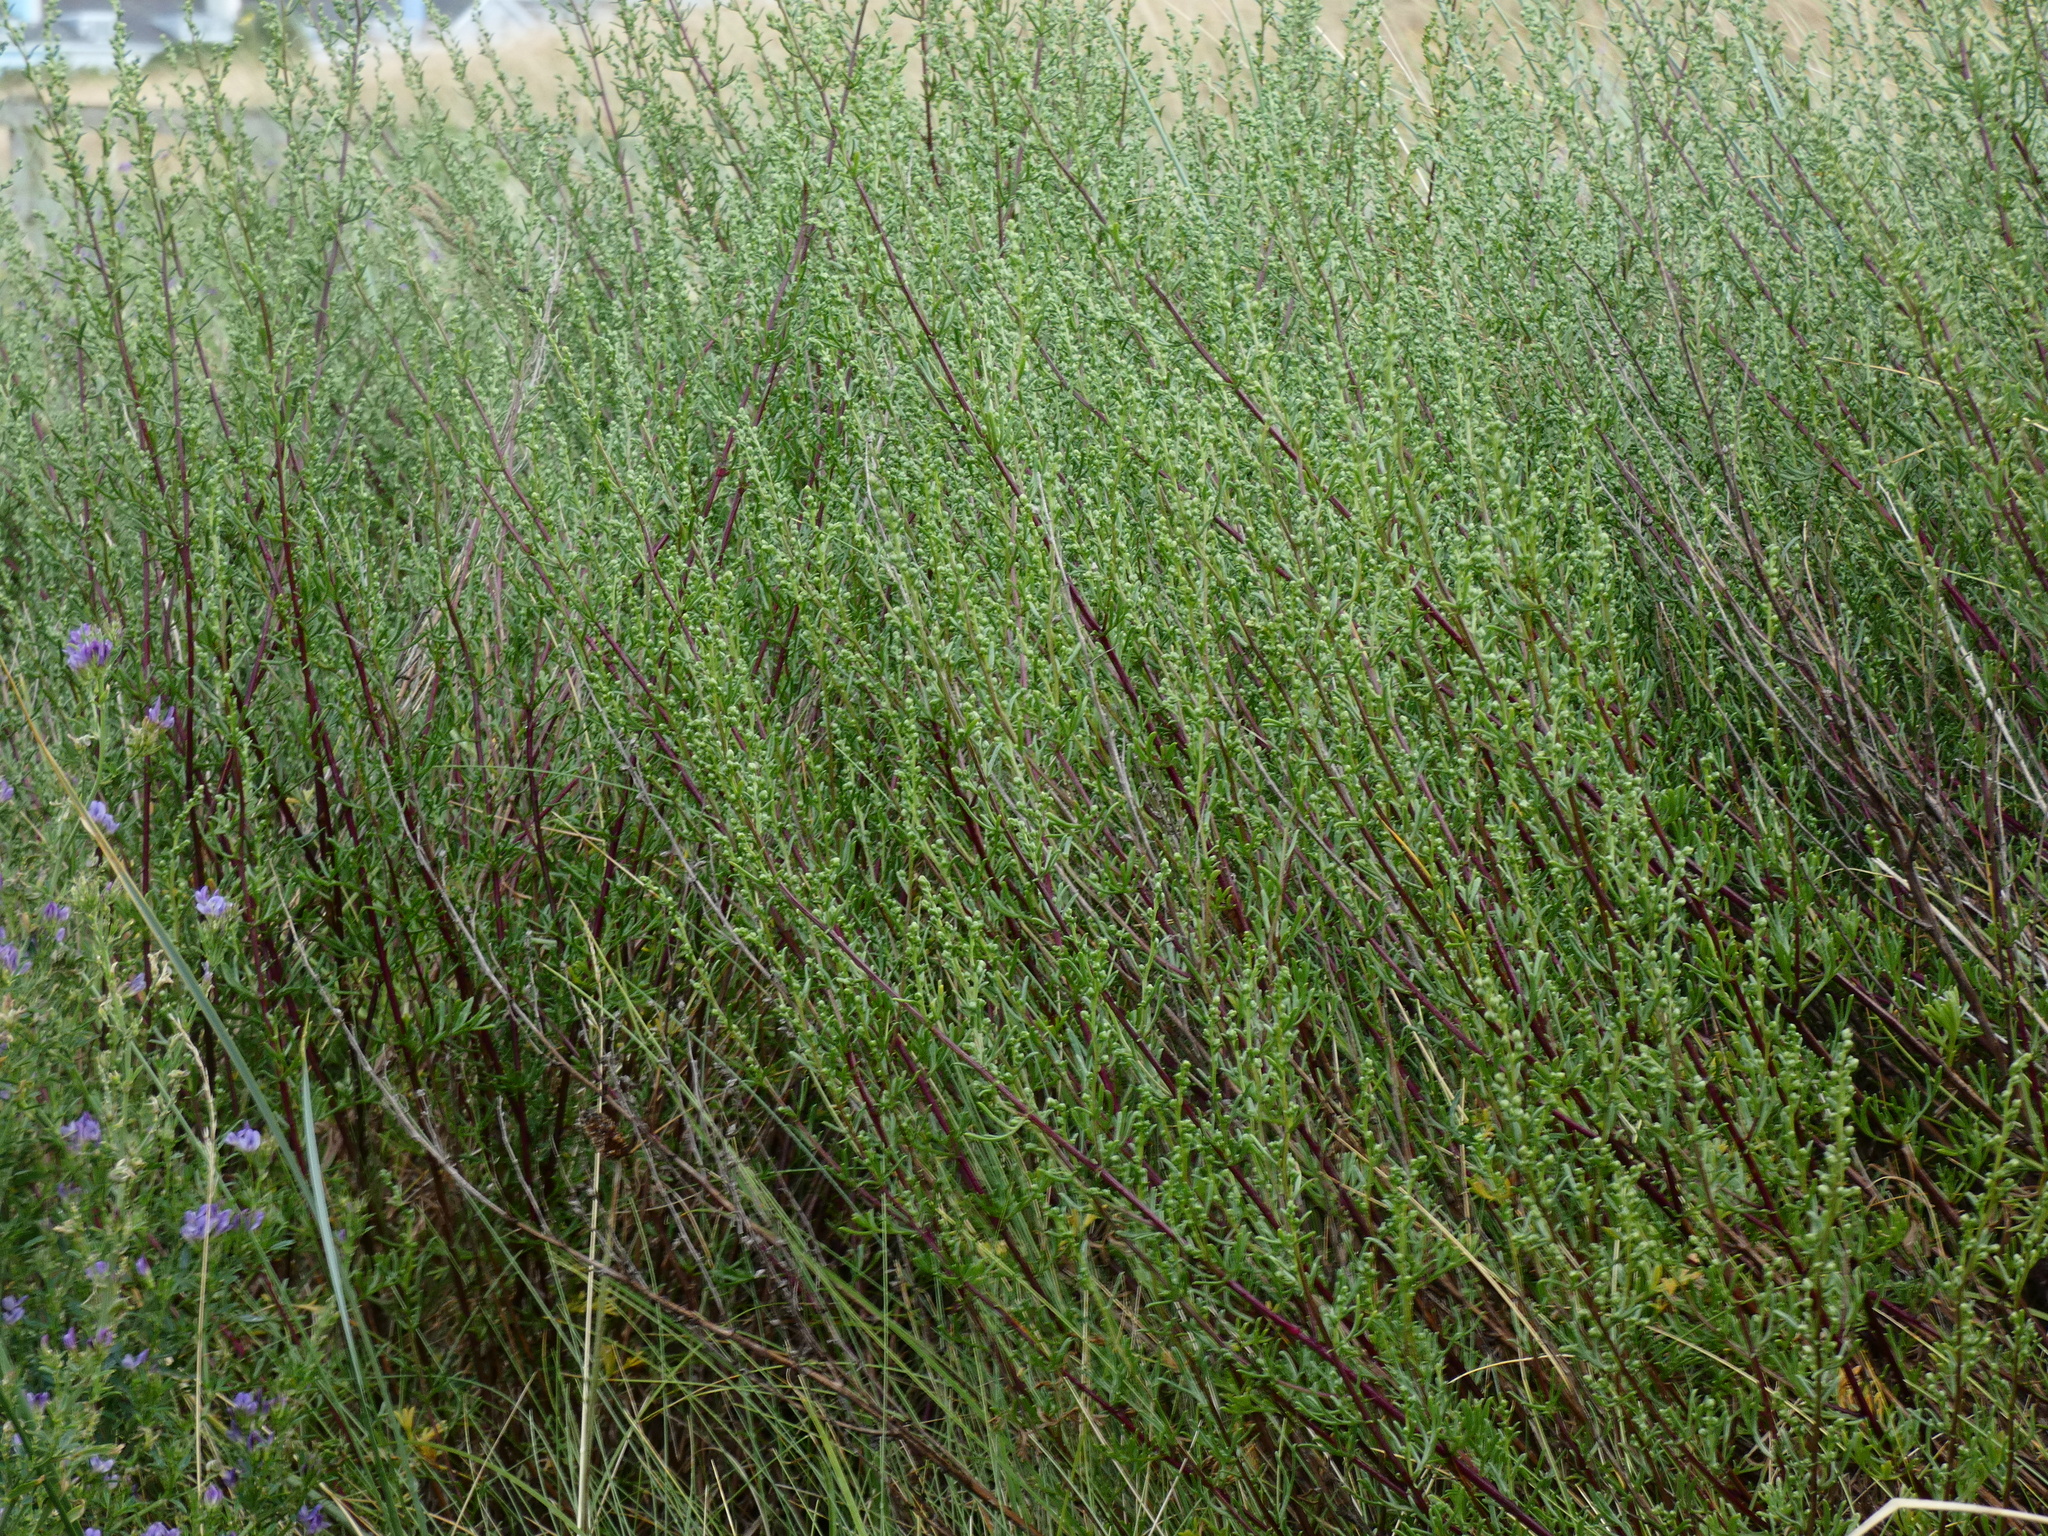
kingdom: Plantae
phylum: Tracheophyta
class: Magnoliopsida
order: Asterales
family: Asteraceae
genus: Artemisia
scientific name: Artemisia crithmifolia
